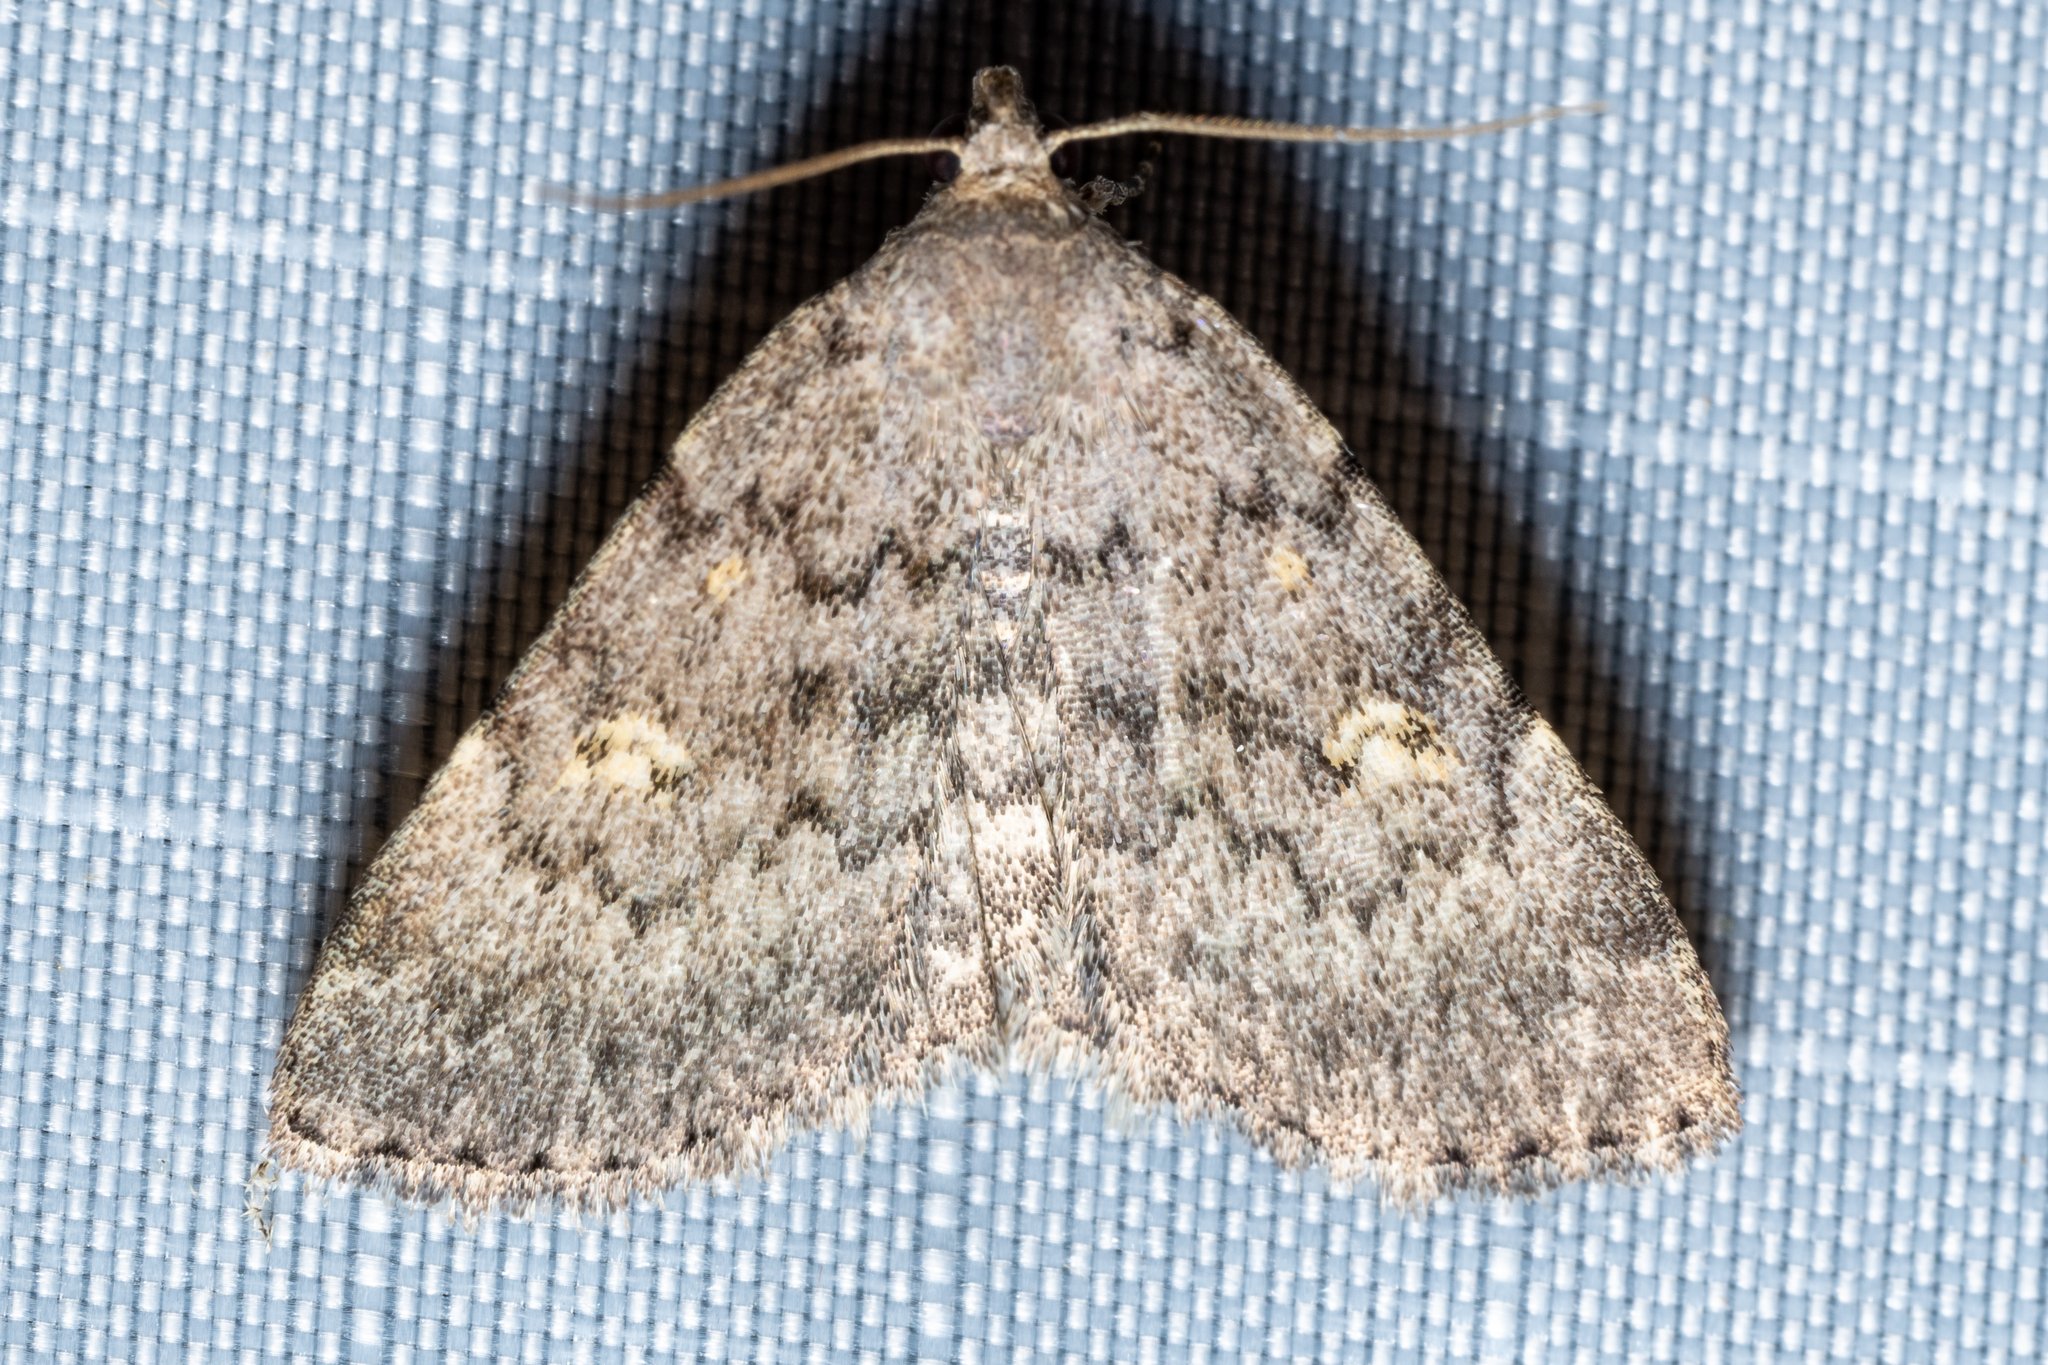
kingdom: Animalia
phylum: Arthropoda
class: Insecta
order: Lepidoptera
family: Erebidae
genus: Idia
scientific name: Idia aemula
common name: Common idia moth
